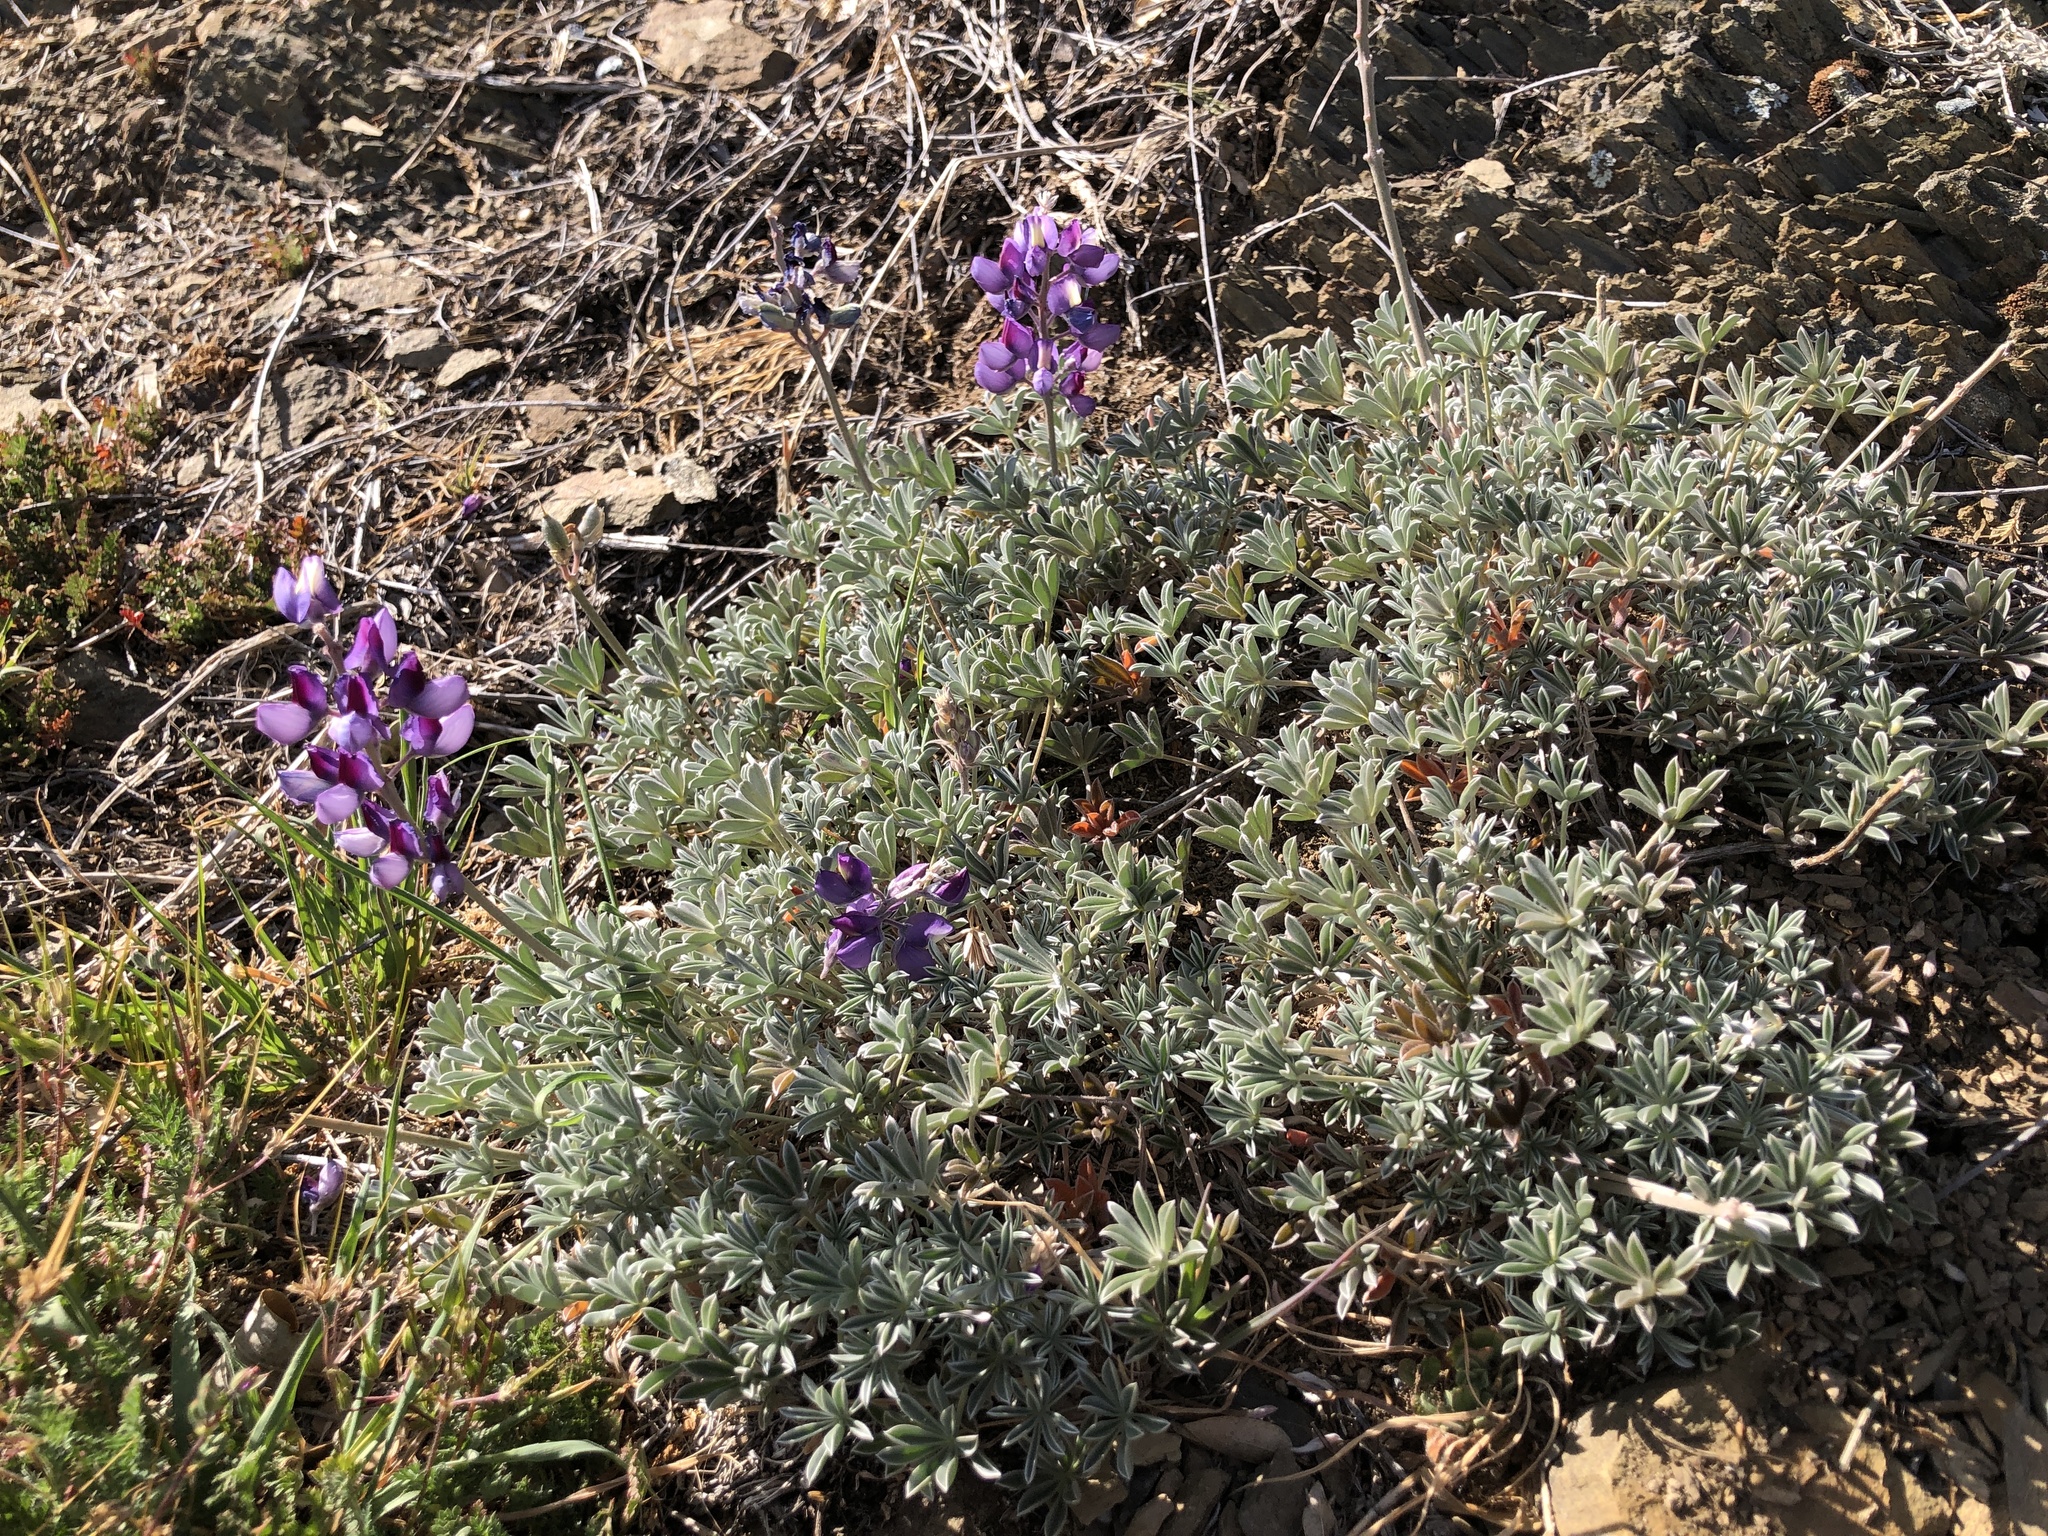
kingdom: Plantae
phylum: Tracheophyta
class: Magnoliopsida
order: Fabales
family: Fabaceae
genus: Lupinus
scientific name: Lupinus albifrons
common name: Foothill lupine
